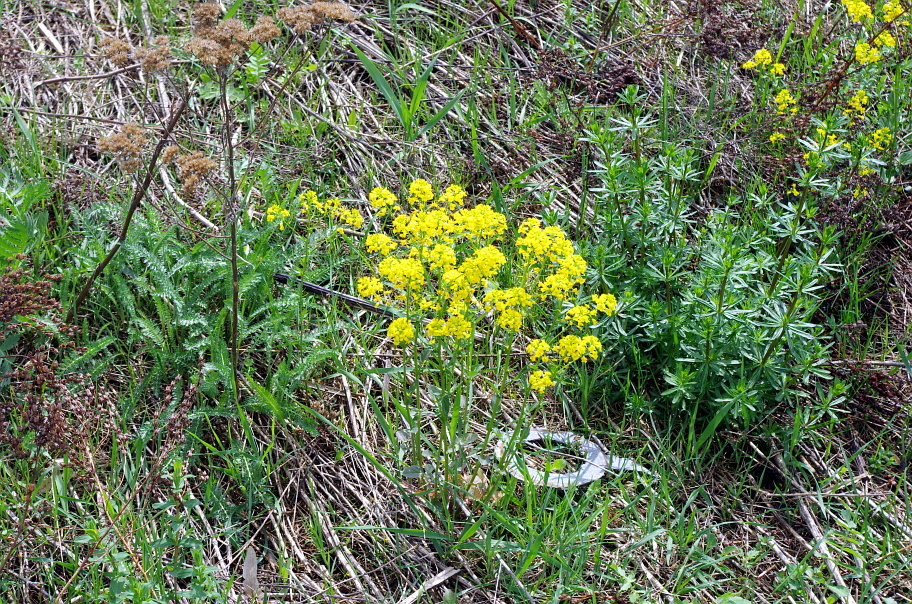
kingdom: Plantae
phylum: Tracheophyta
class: Magnoliopsida
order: Brassicales
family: Brassicaceae
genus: Barbarea
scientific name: Barbarea vulgaris
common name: Cressy-greens
